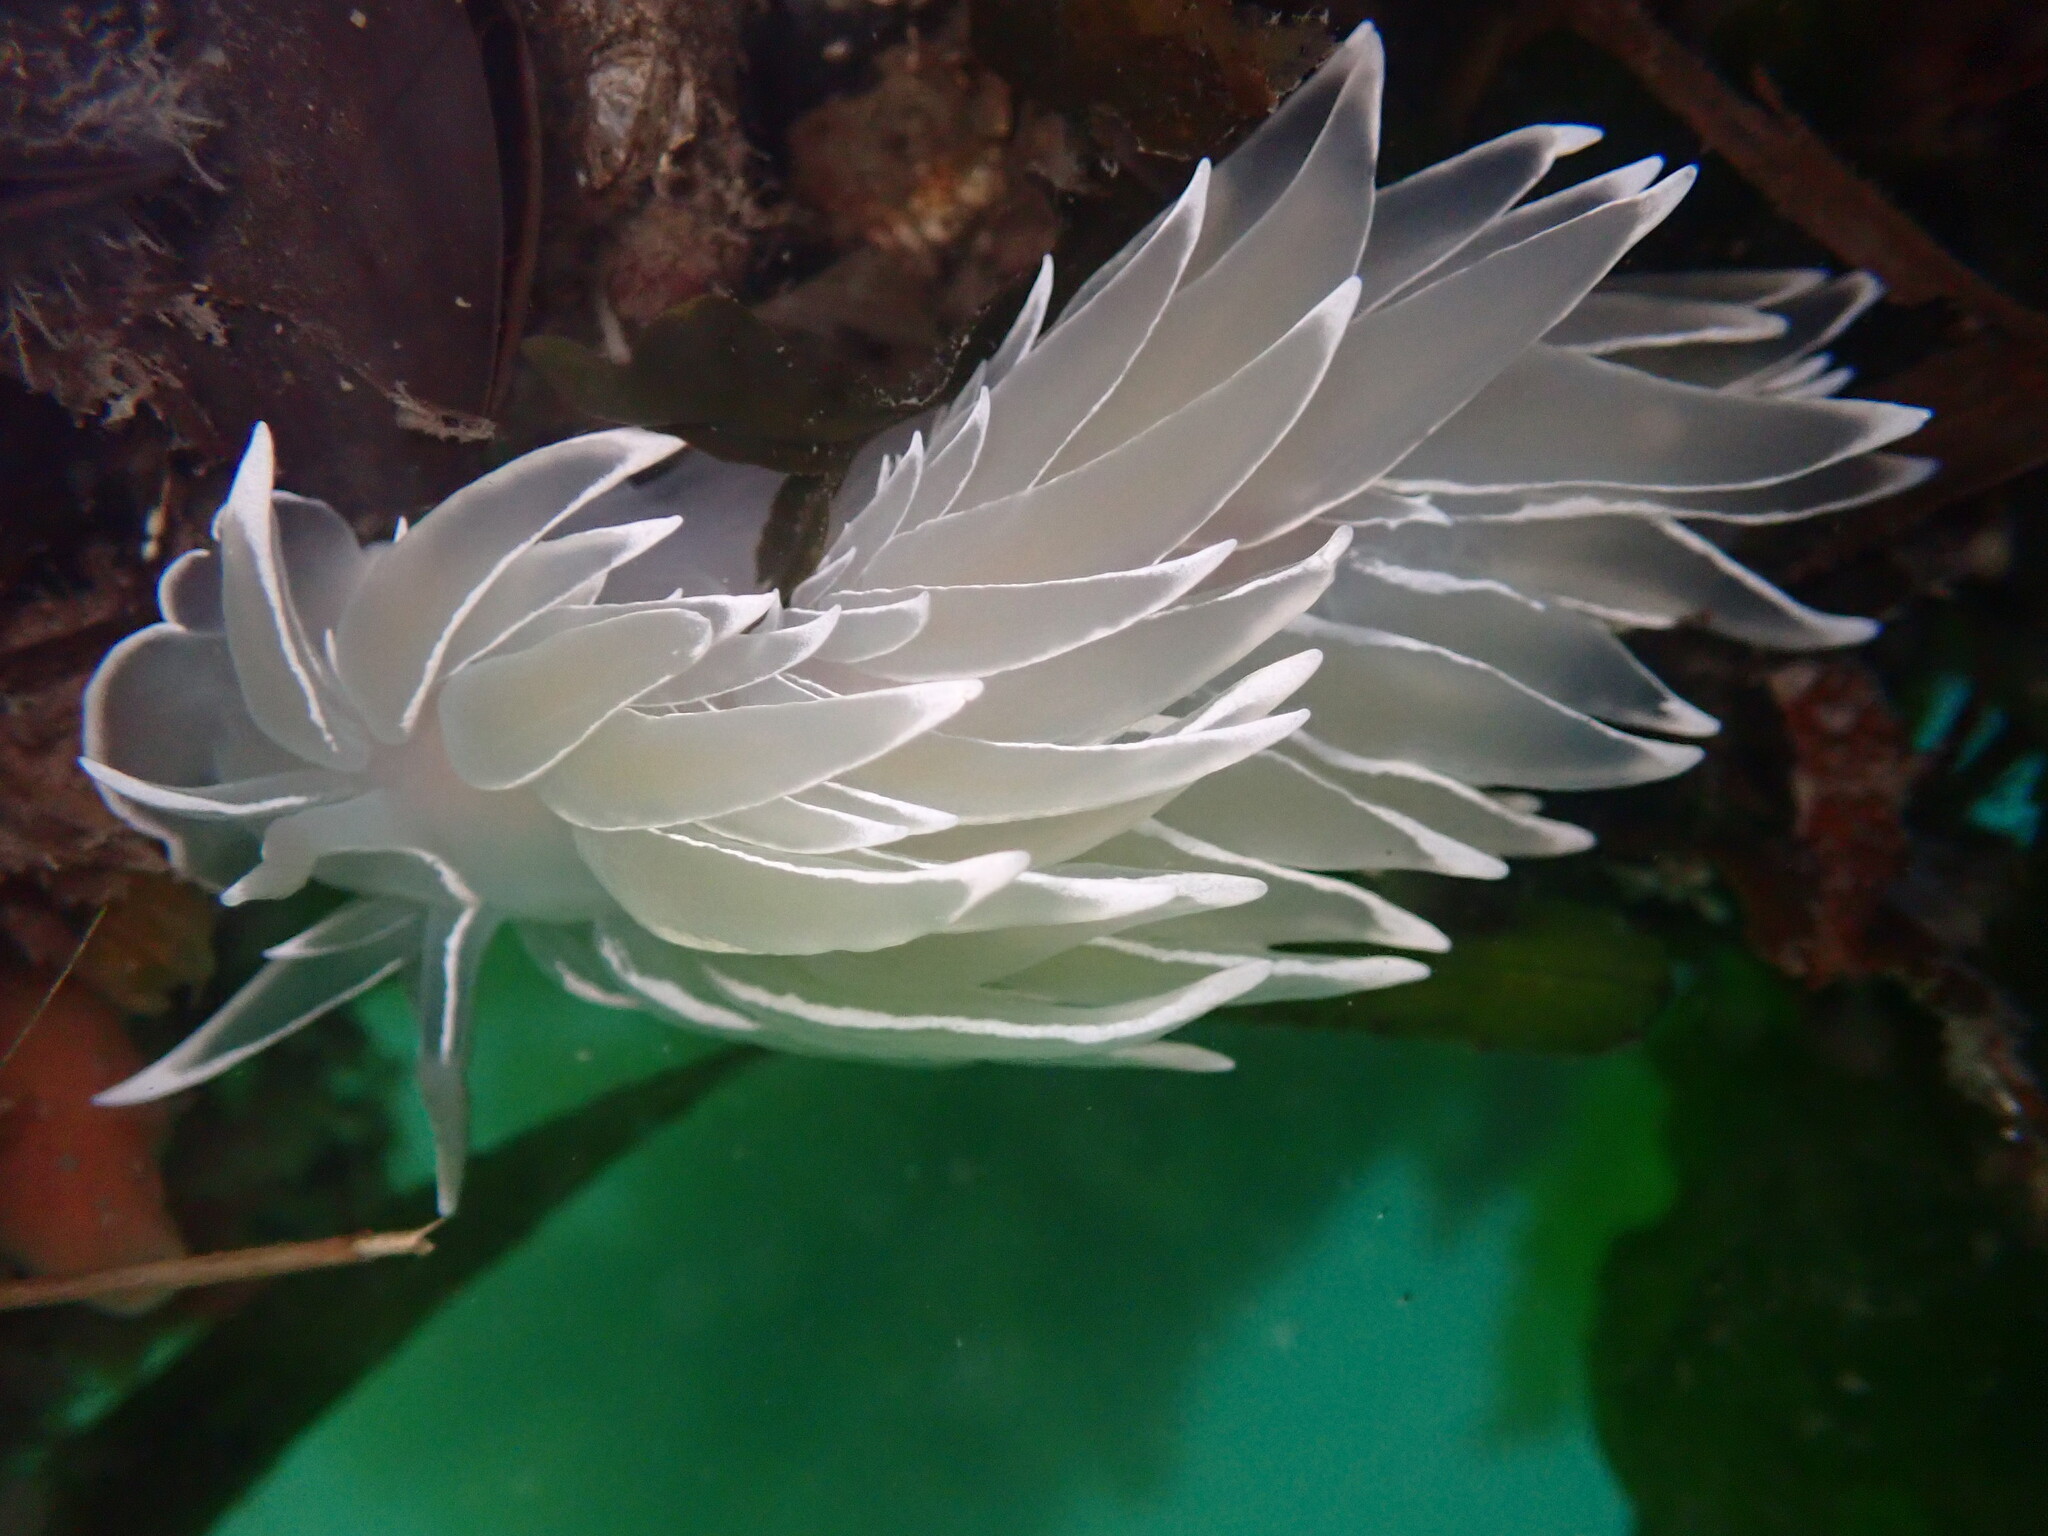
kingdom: Animalia
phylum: Mollusca
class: Gastropoda
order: Nudibranchia
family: Dironidae
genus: Dirona
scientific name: Dirona albolineata
